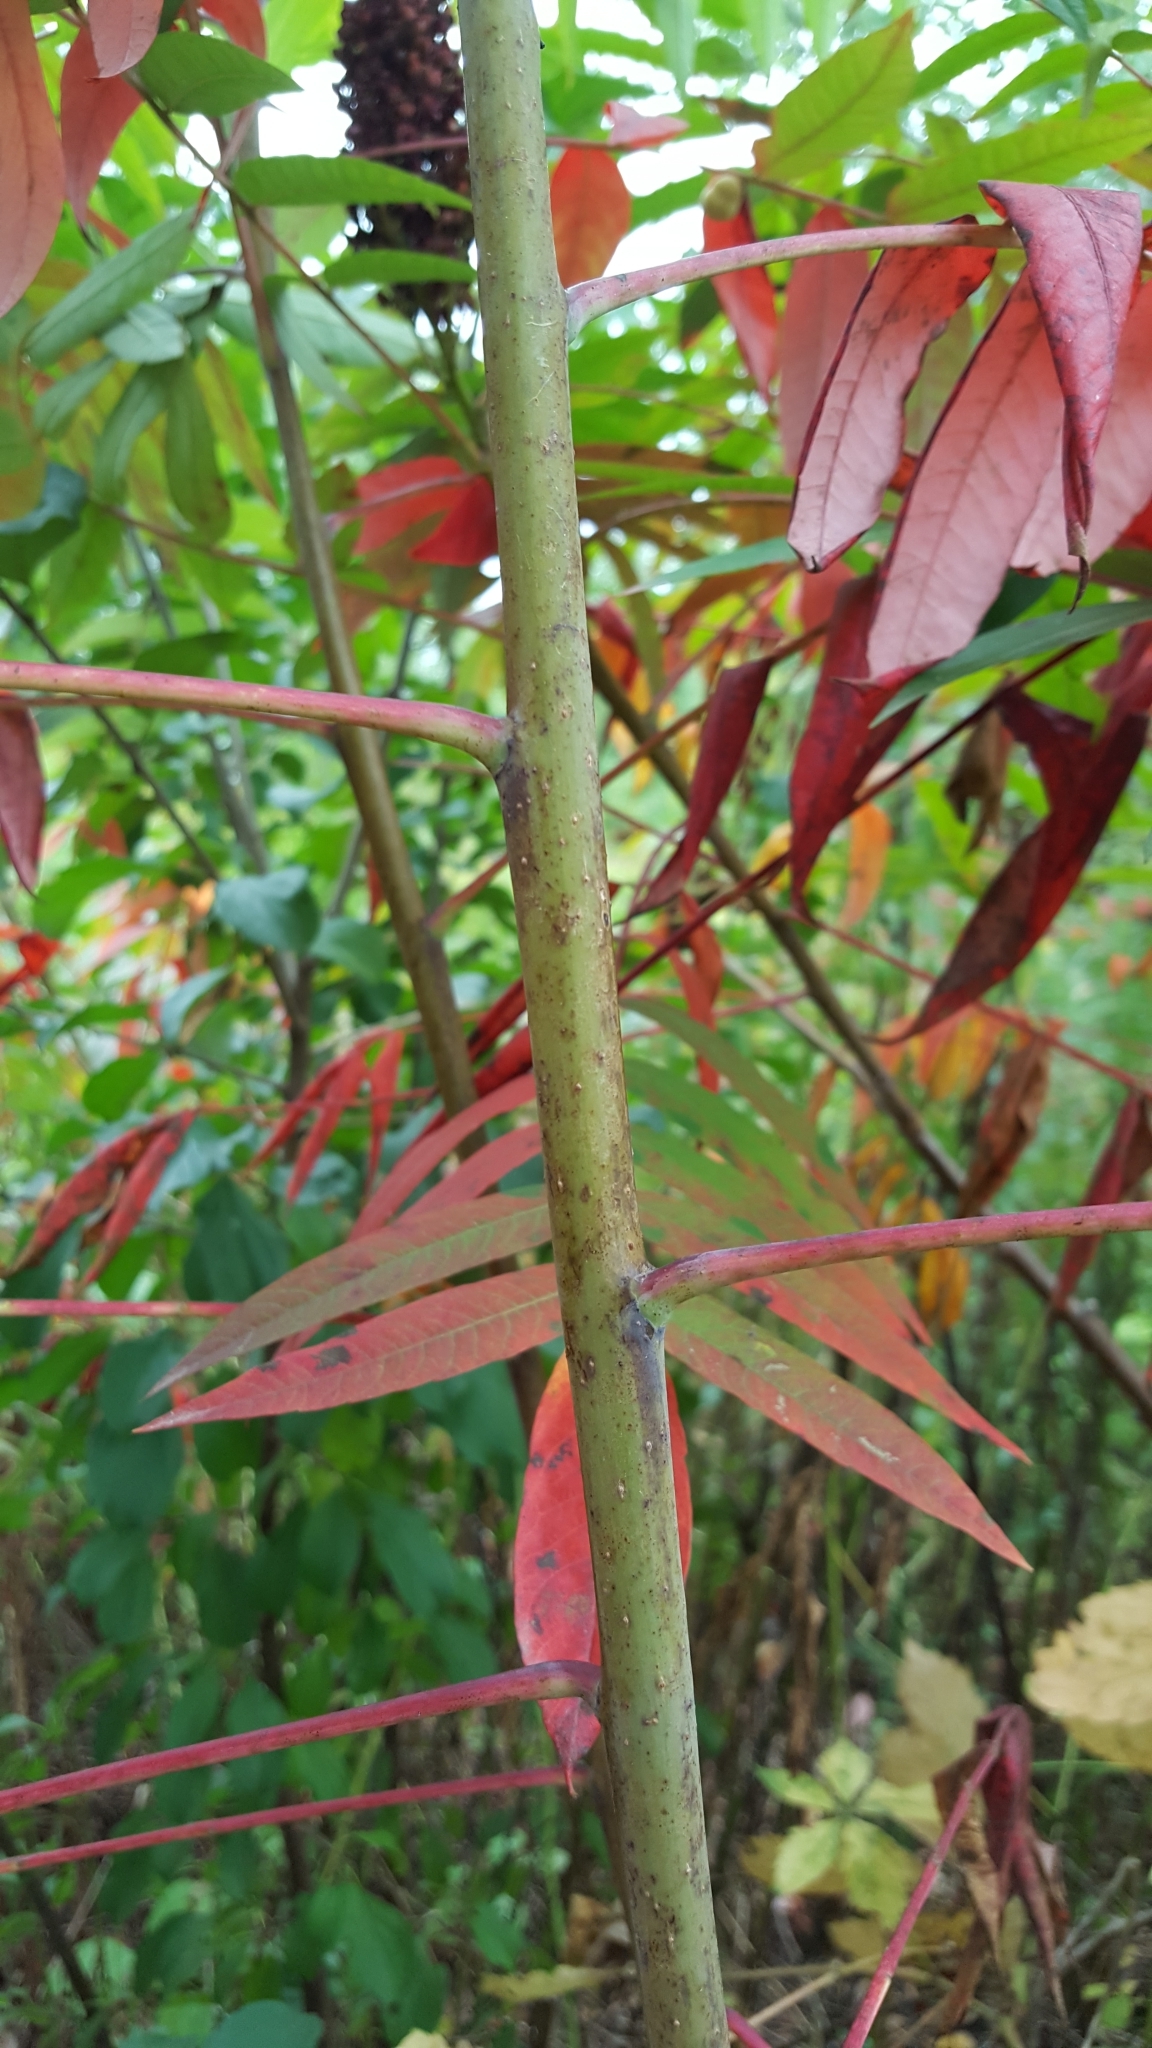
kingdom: Plantae
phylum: Tracheophyta
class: Magnoliopsida
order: Sapindales
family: Anacardiaceae
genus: Rhus
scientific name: Rhus glabra
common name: Scarlet sumac
